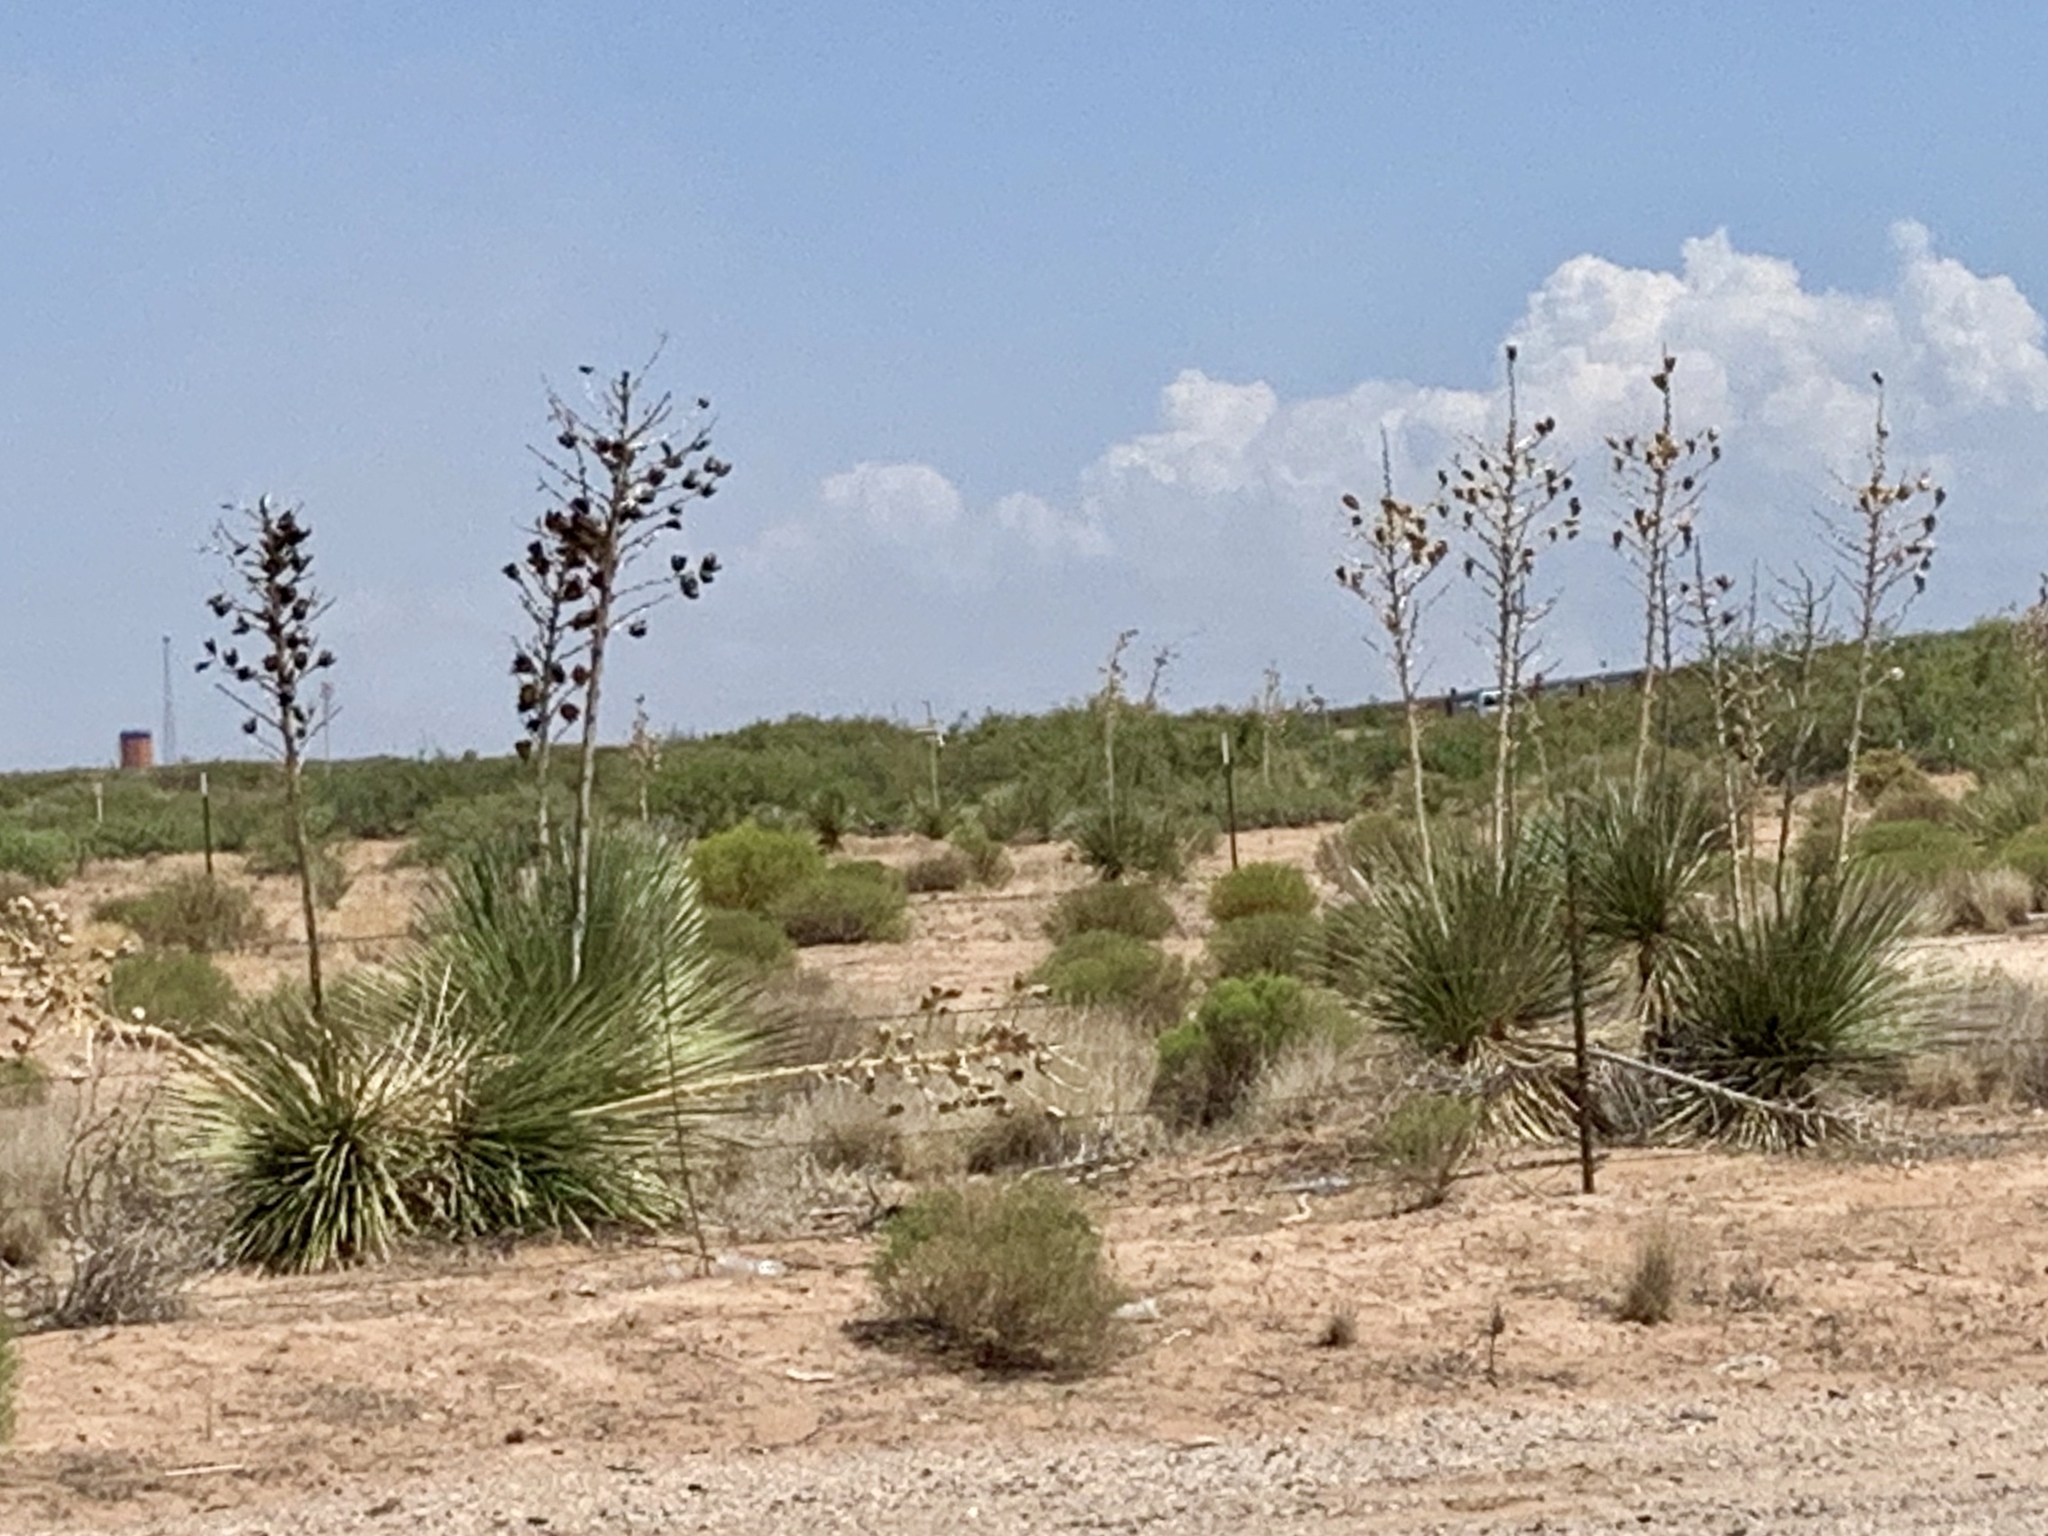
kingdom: Plantae
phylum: Tracheophyta
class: Liliopsida
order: Asparagales
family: Asparagaceae
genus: Yucca
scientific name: Yucca elata
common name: Palmella
